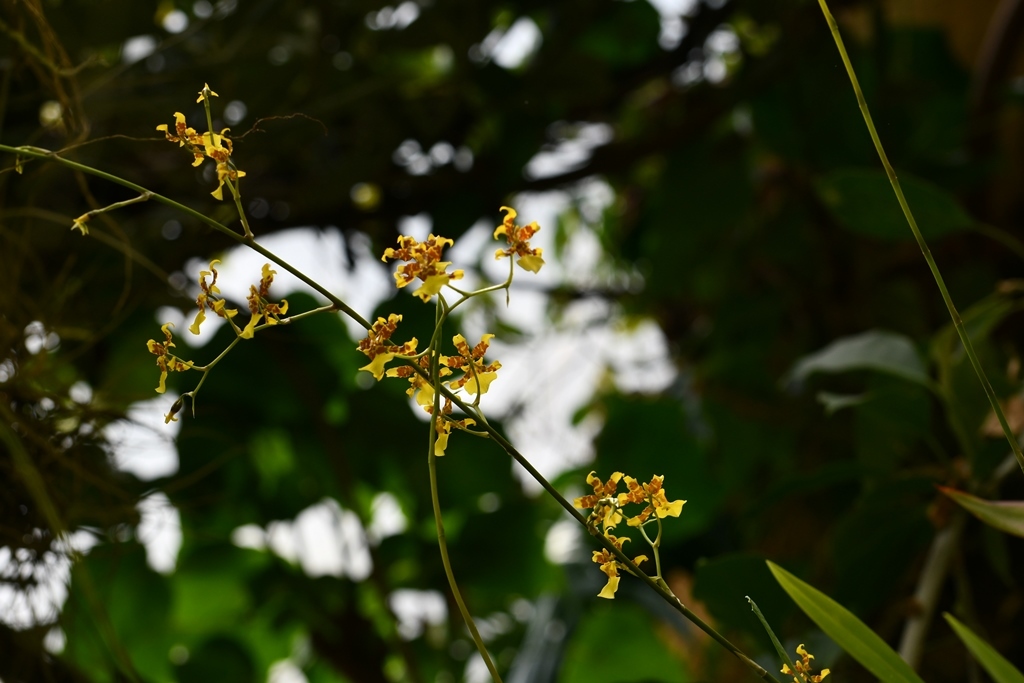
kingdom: Plantae
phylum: Tracheophyta
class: Liliopsida
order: Asparagales
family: Orchidaceae
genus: Oncidium
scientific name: Oncidium sphacelatum
